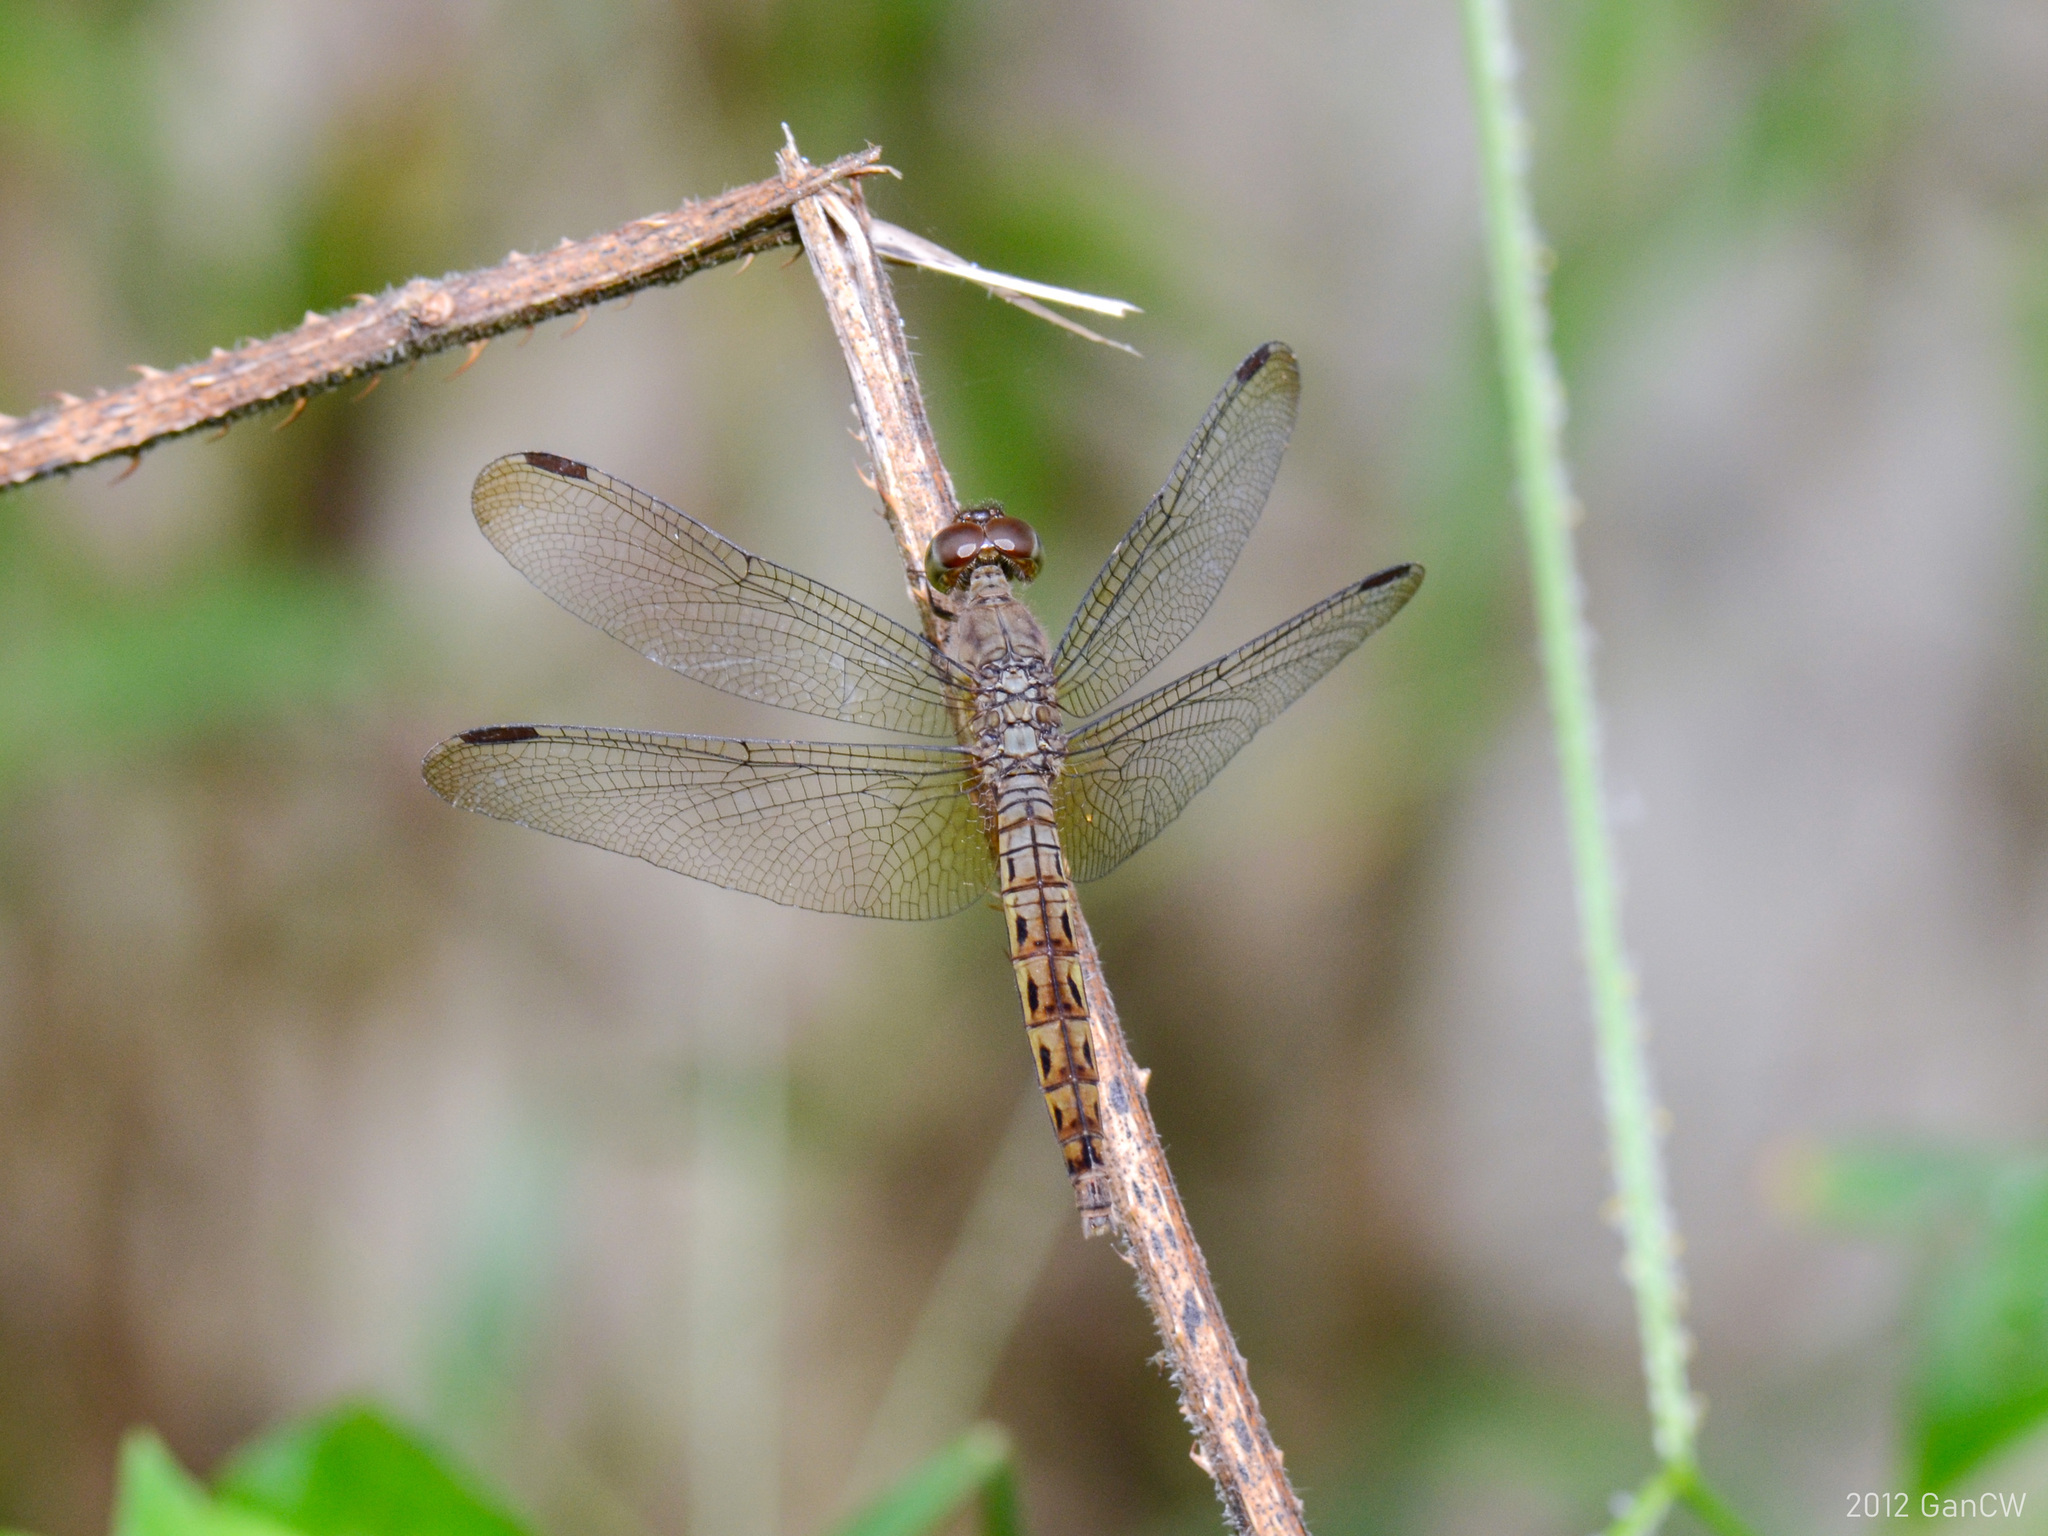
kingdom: Animalia
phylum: Arthropoda
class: Insecta
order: Odonata
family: Libellulidae
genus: Neurothemis
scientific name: Neurothemis fluctuans
